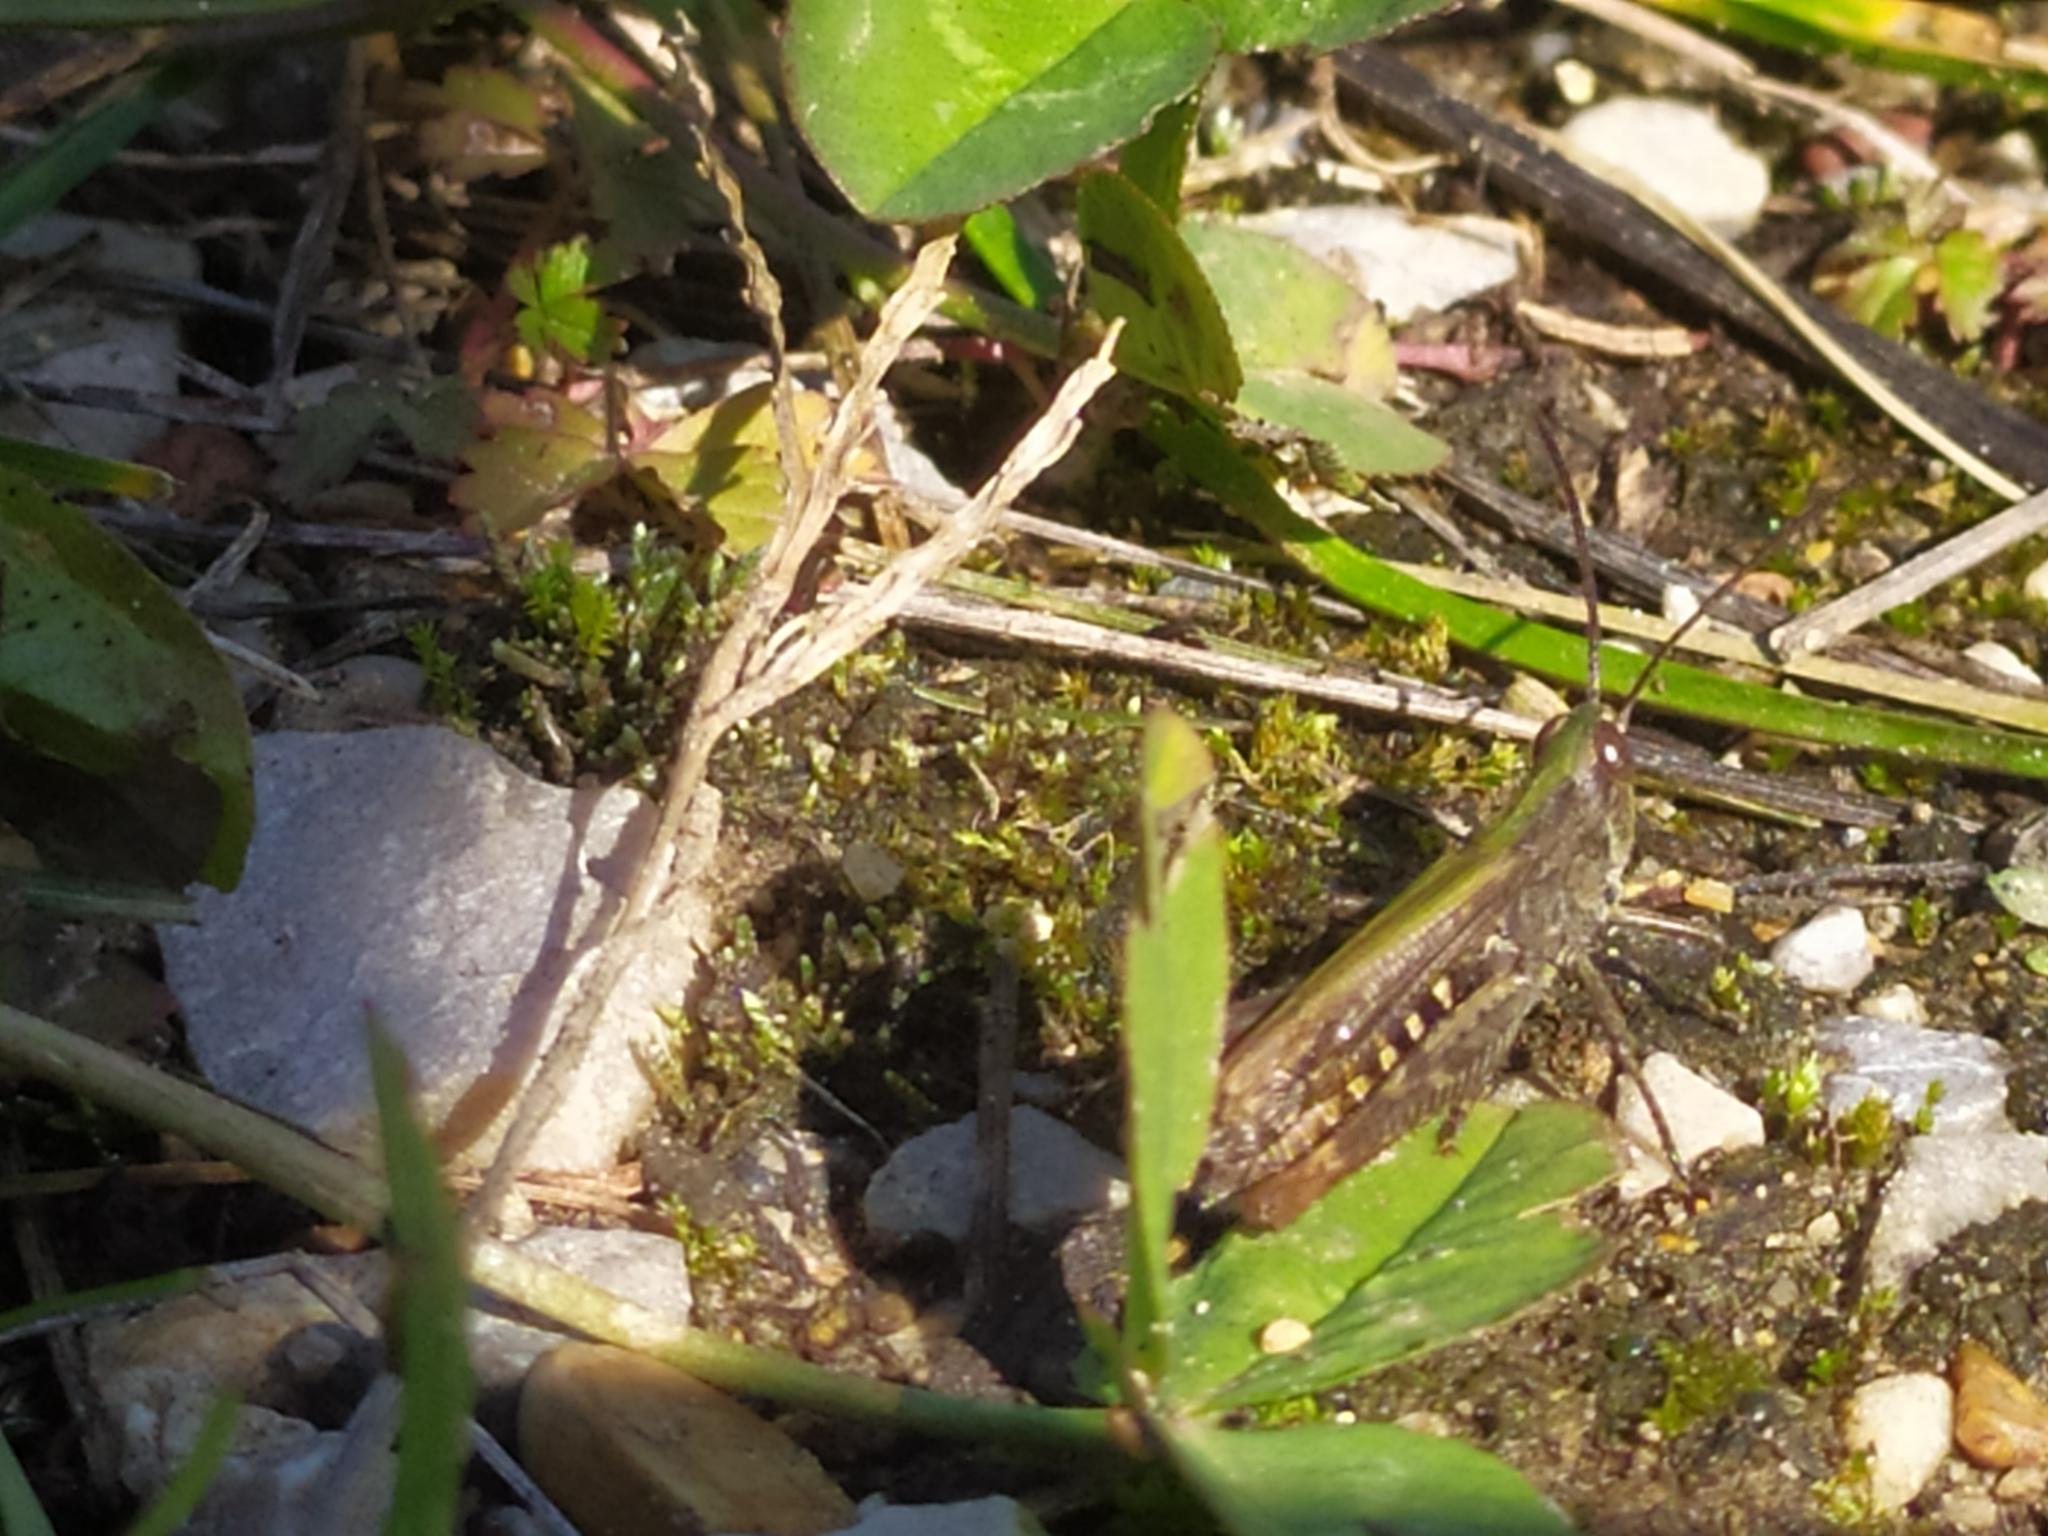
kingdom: Animalia
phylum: Arthropoda
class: Insecta
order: Orthoptera
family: Acrididae
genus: Chorthippus
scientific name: Chorthippus mollis
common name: Lesser field grasshopper
